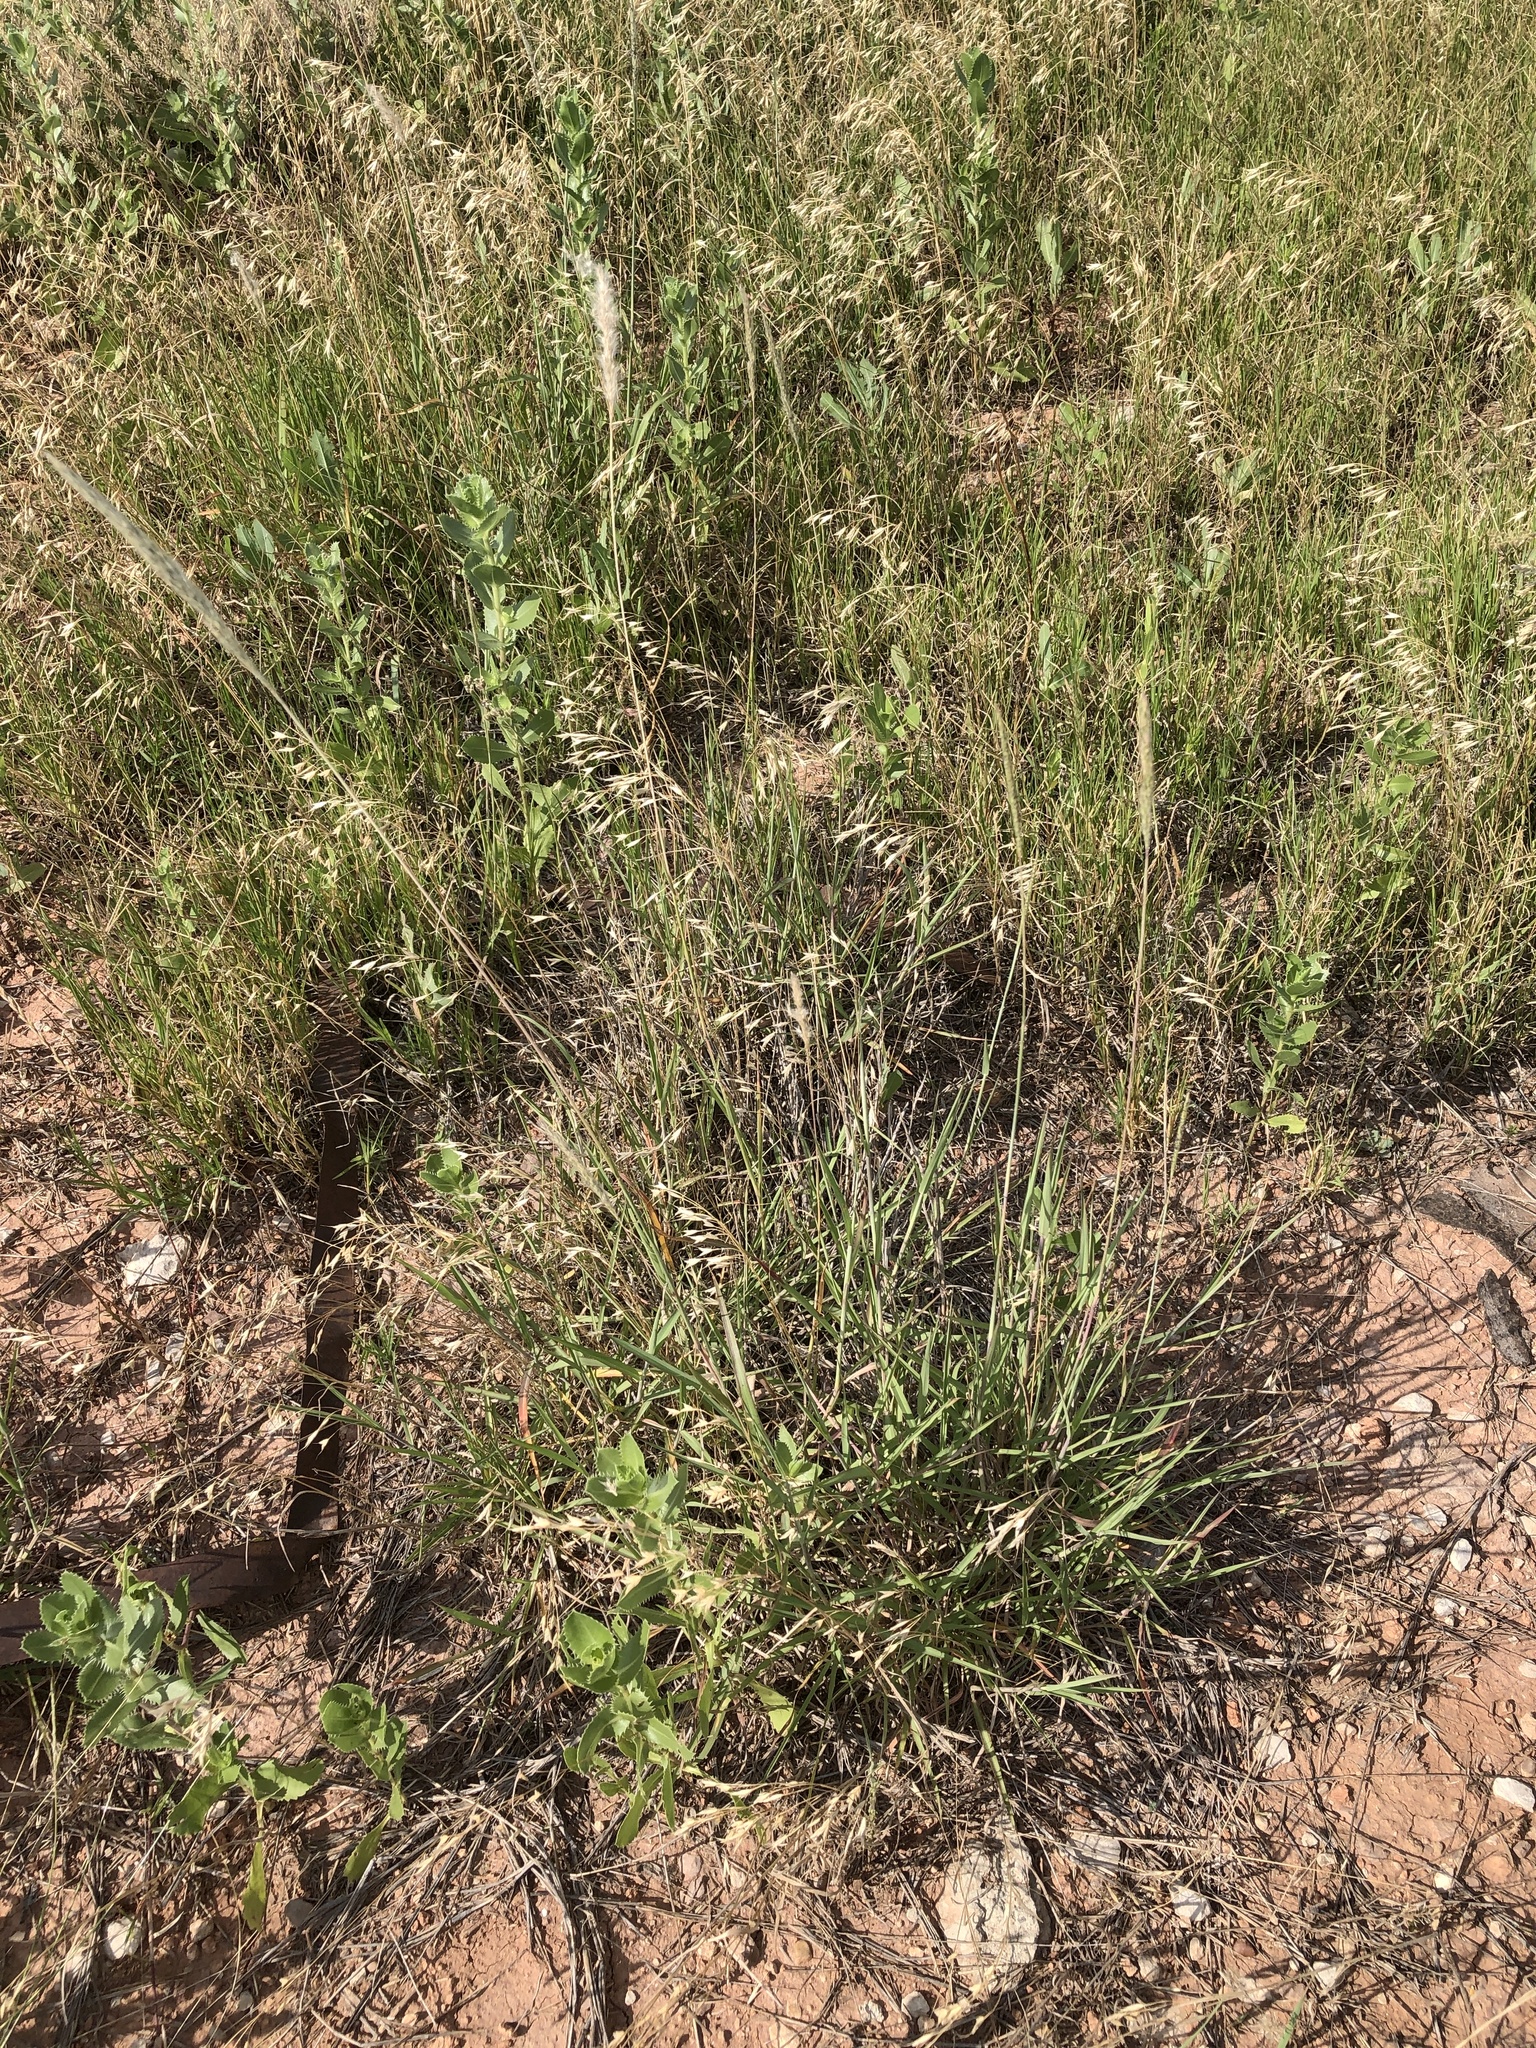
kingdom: Plantae
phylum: Tracheophyta
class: Liliopsida
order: Poales
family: Poaceae
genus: Bothriochloa
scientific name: Bothriochloa torreyana
